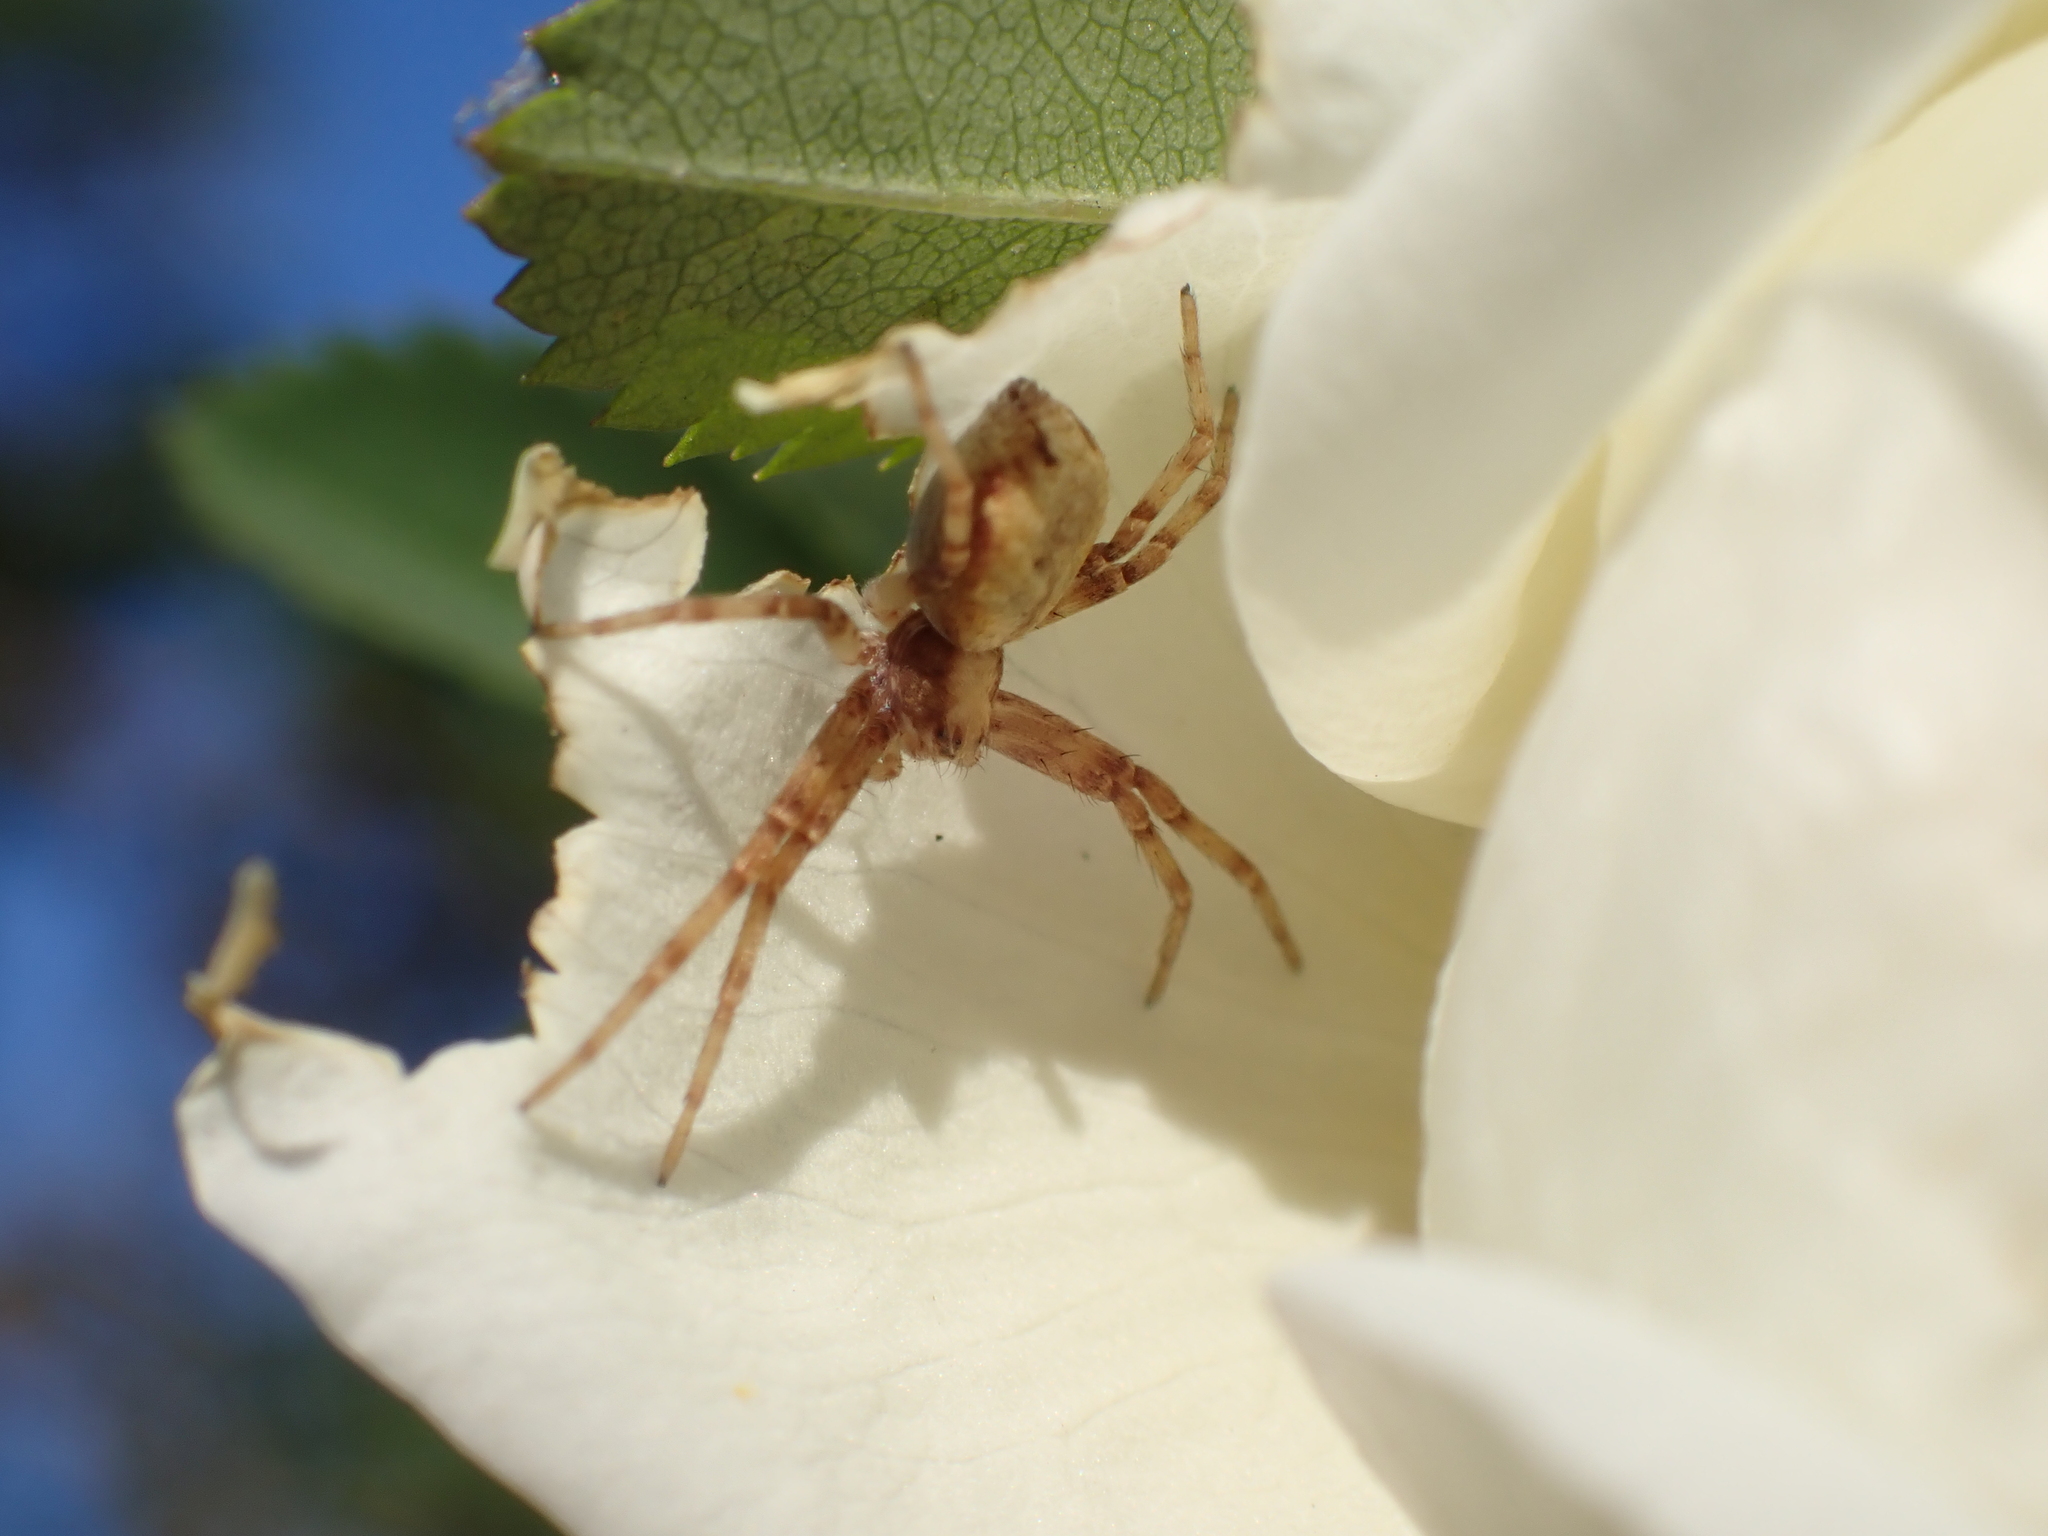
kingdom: Animalia
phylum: Arthropoda
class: Arachnida
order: Araneae
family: Philodromidae
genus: Philodromus
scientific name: Philodromus
